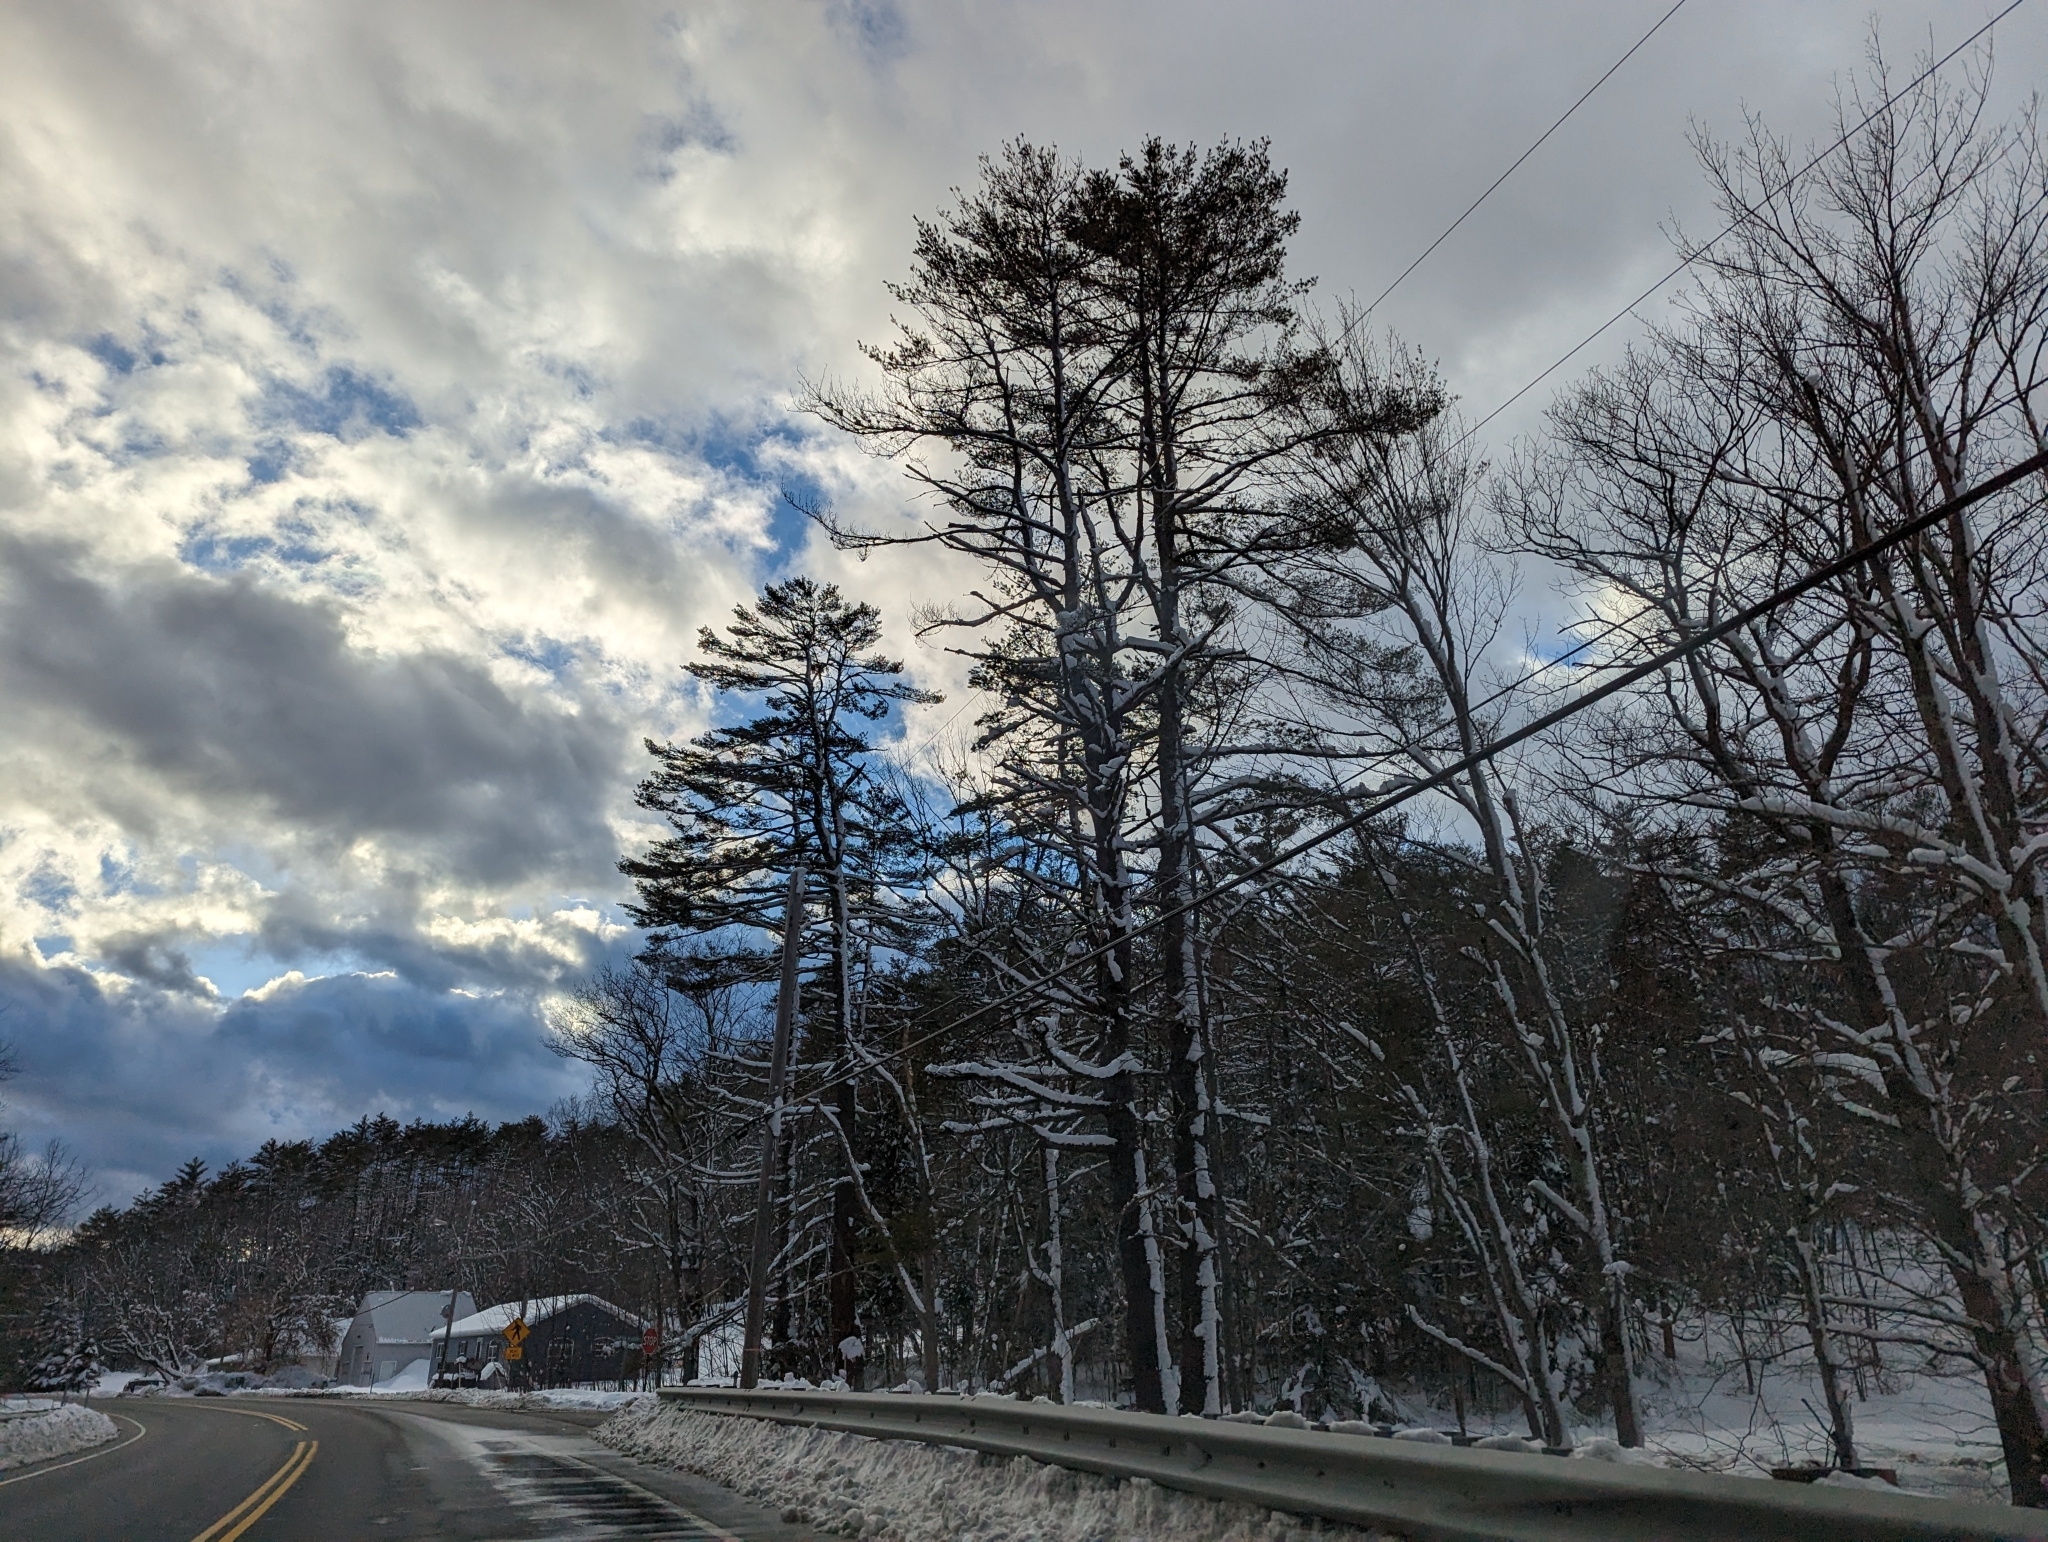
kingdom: Plantae
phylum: Tracheophyta
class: Pinopsida
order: Pinales
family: Pinaceae
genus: Pinus
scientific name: Pinus strobus
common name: Weymouth pine
